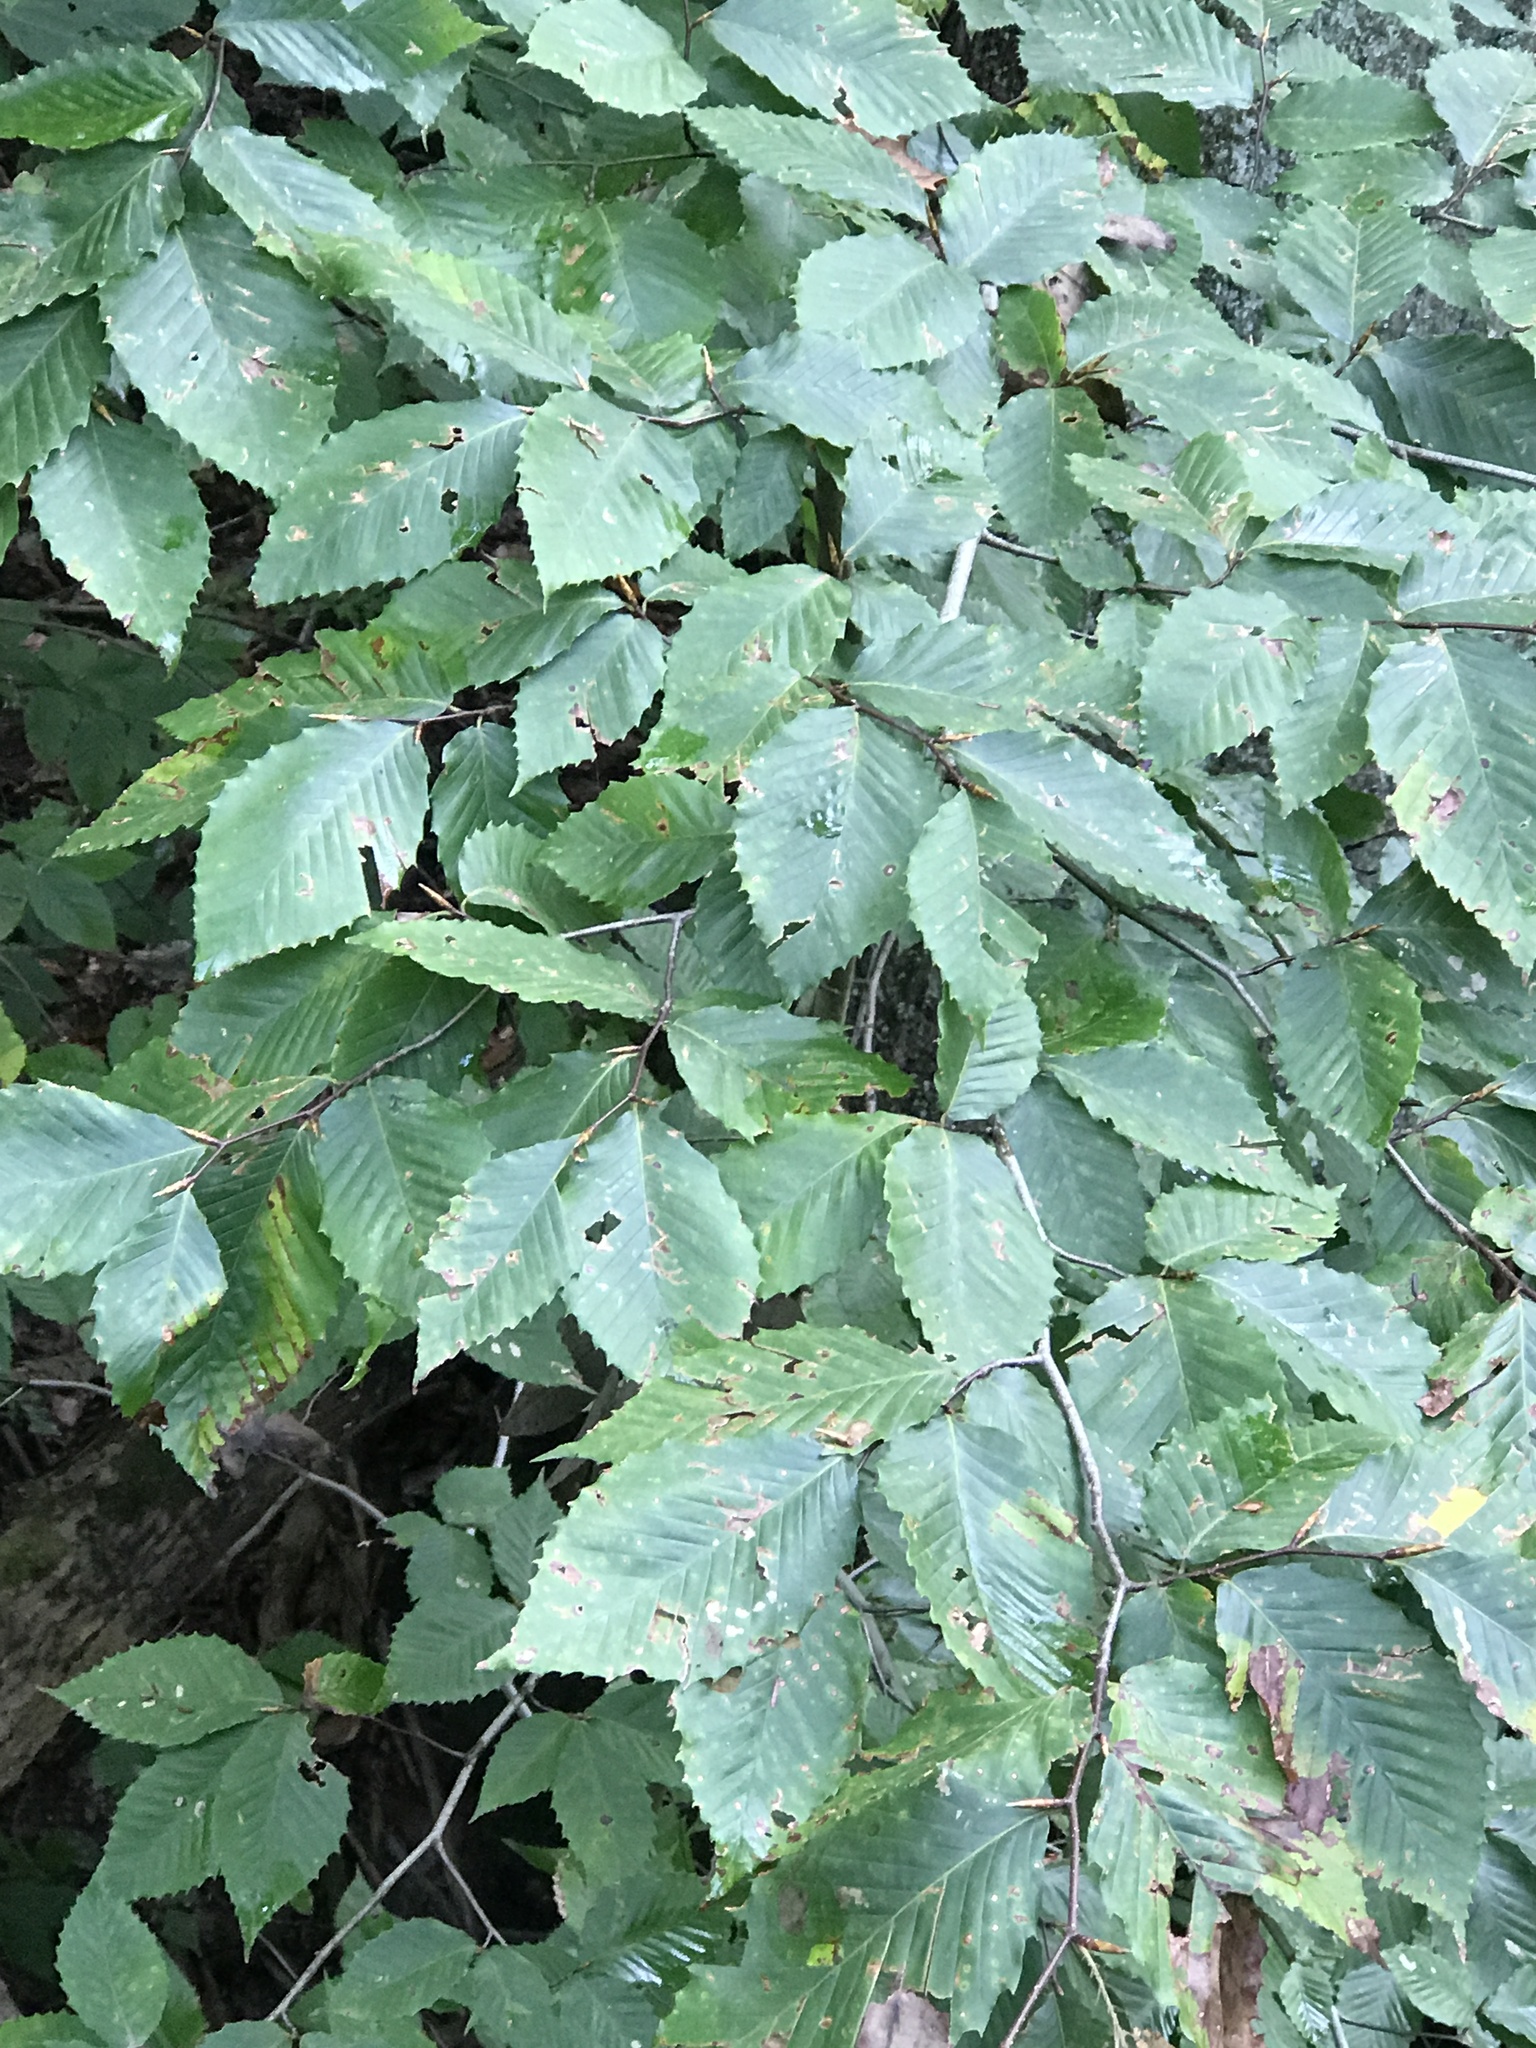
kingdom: Plantae
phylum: Tracheophyta
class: Magnoliopsida
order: Fagales
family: Fagaceae
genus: Fagus
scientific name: Fagus grandifolia
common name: American beech
